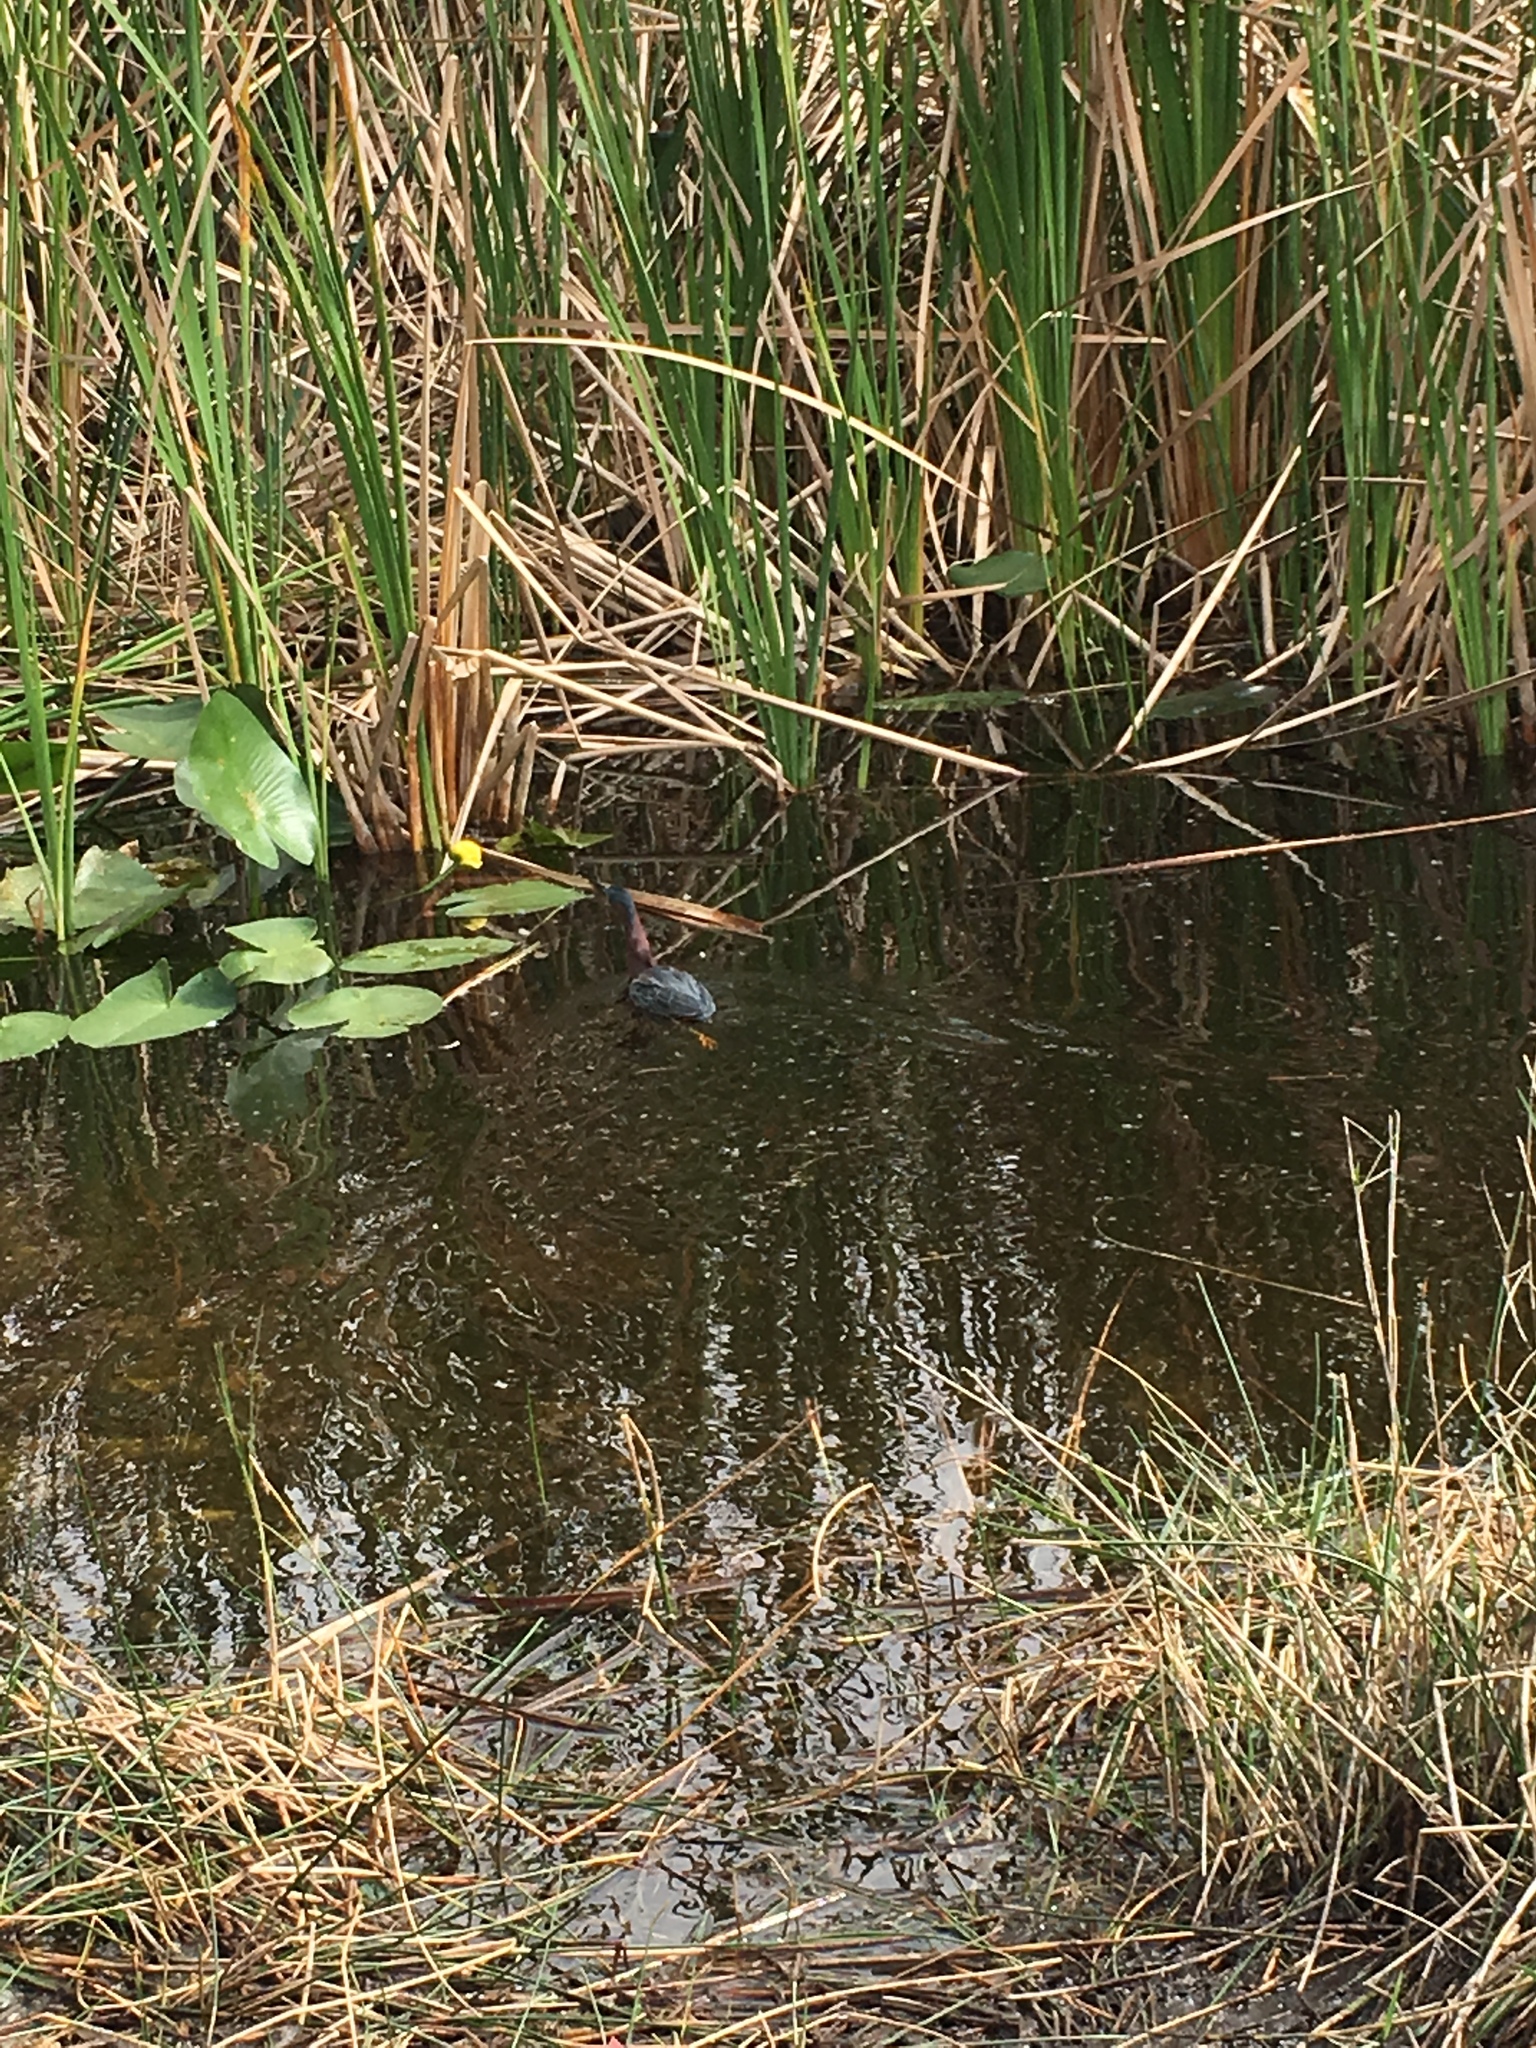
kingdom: Animalia
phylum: Chordata
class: Aves
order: Pelecaniformes
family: Ardeidae
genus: Butorides
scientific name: Butorides virescens
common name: Green heron
